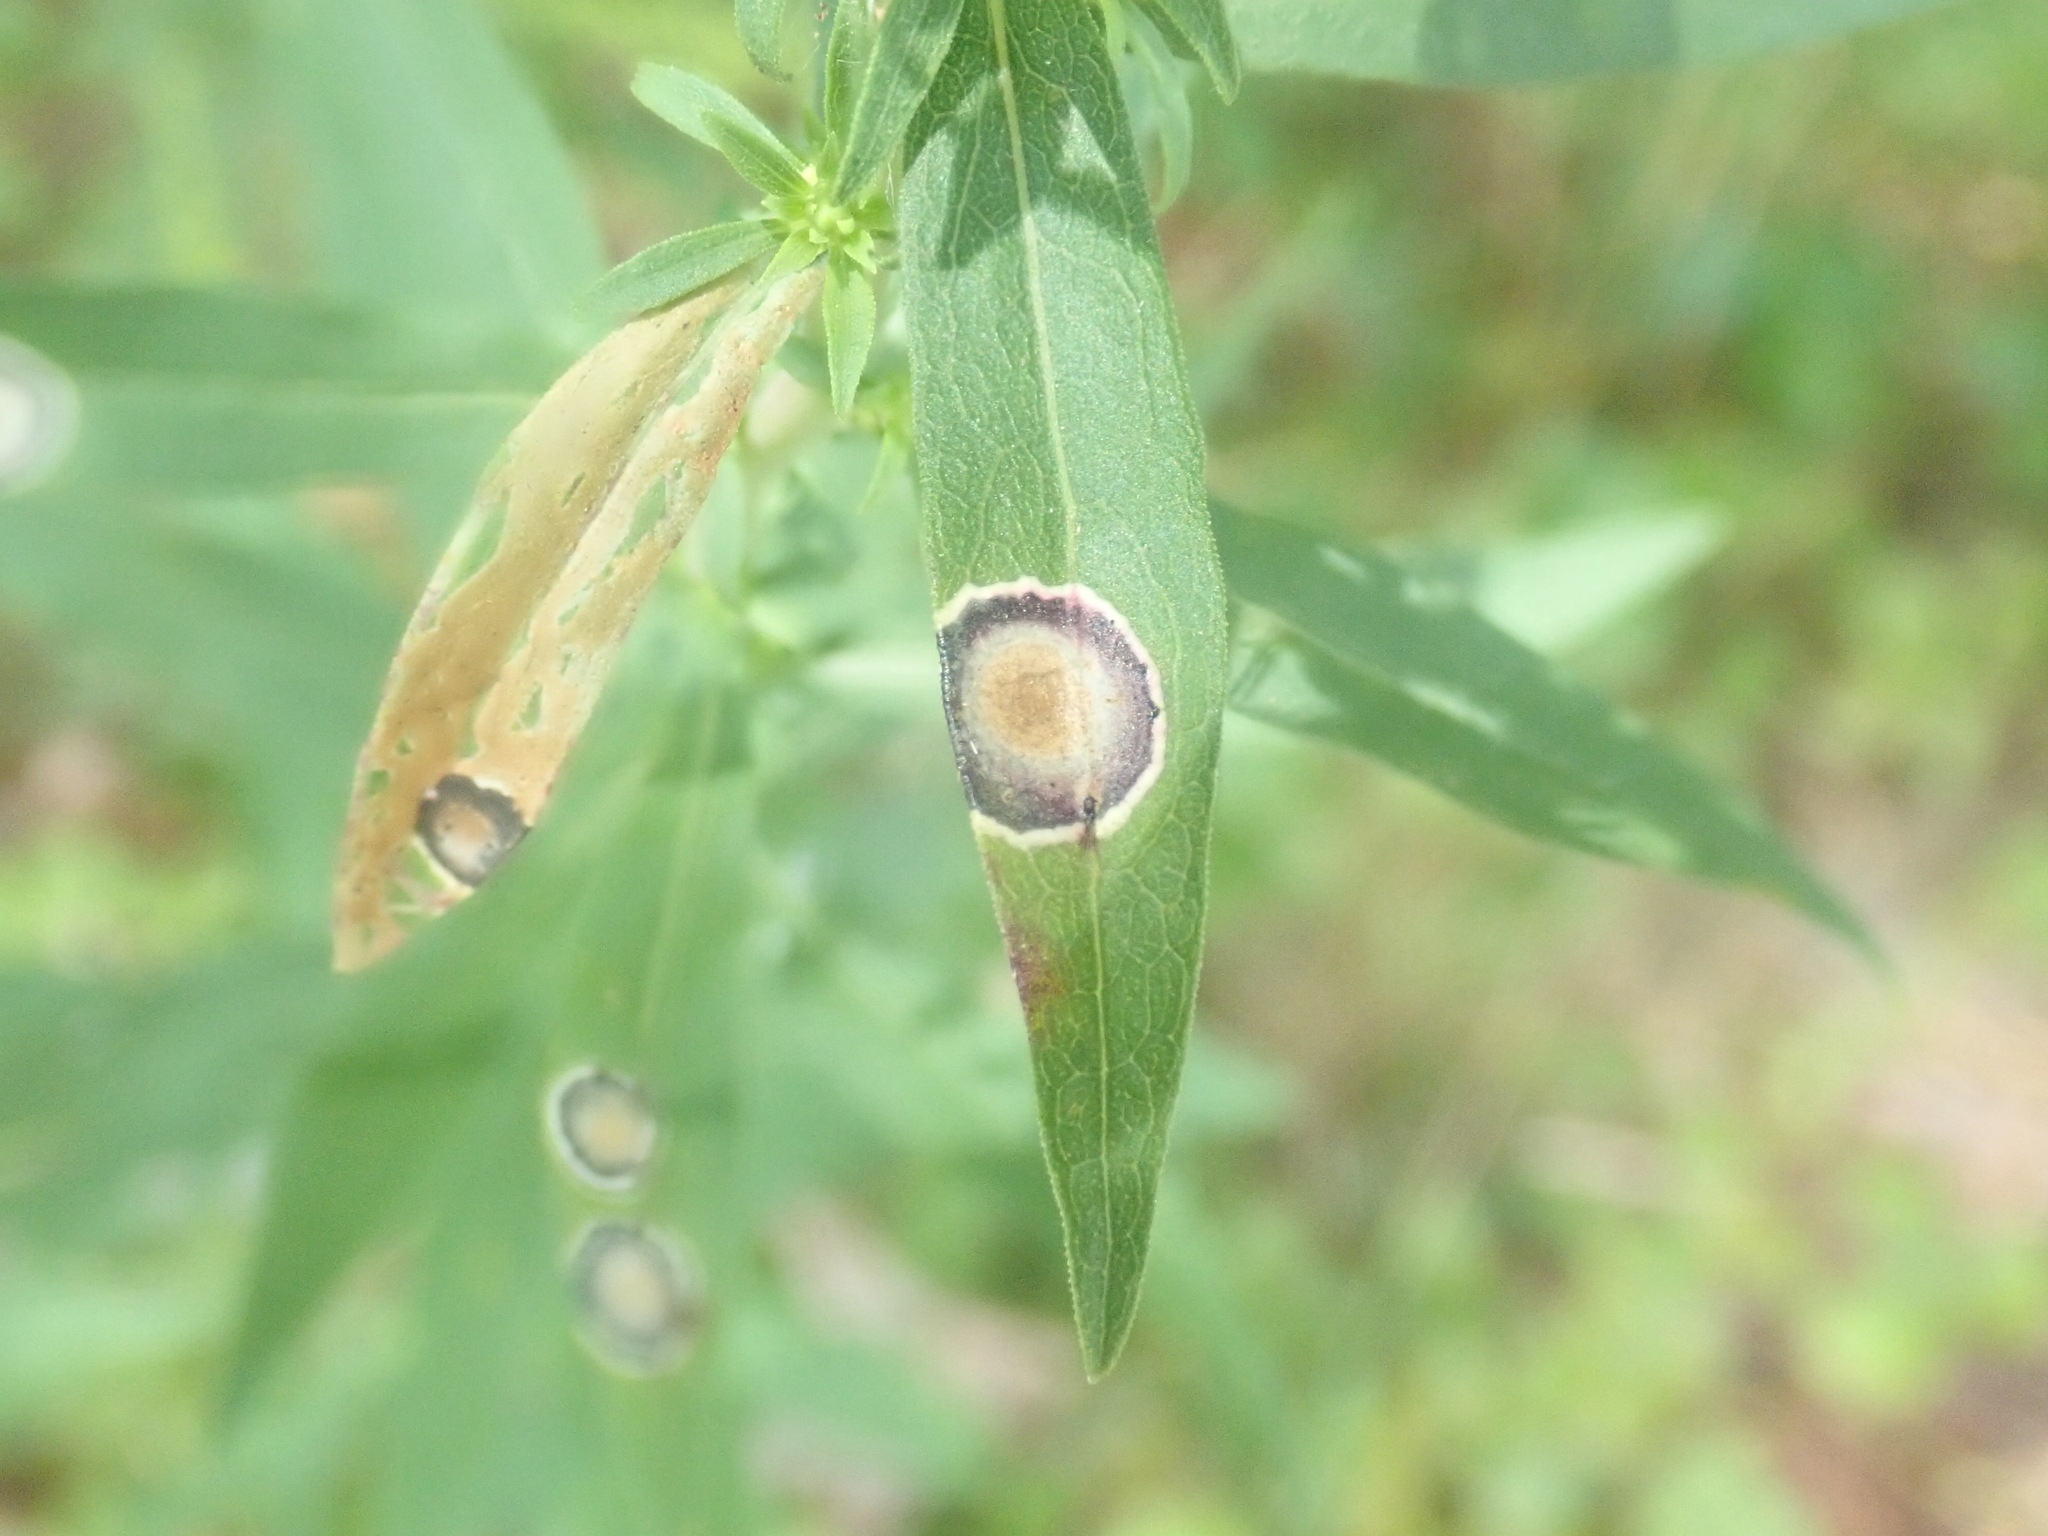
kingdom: Animalia
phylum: Arthropoda
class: Insecta
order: Diptera
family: Cecidomyiidae
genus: Asteromyia
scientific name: Asteromyia carbonifera
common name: Carbonifera goldenrod gall midge
